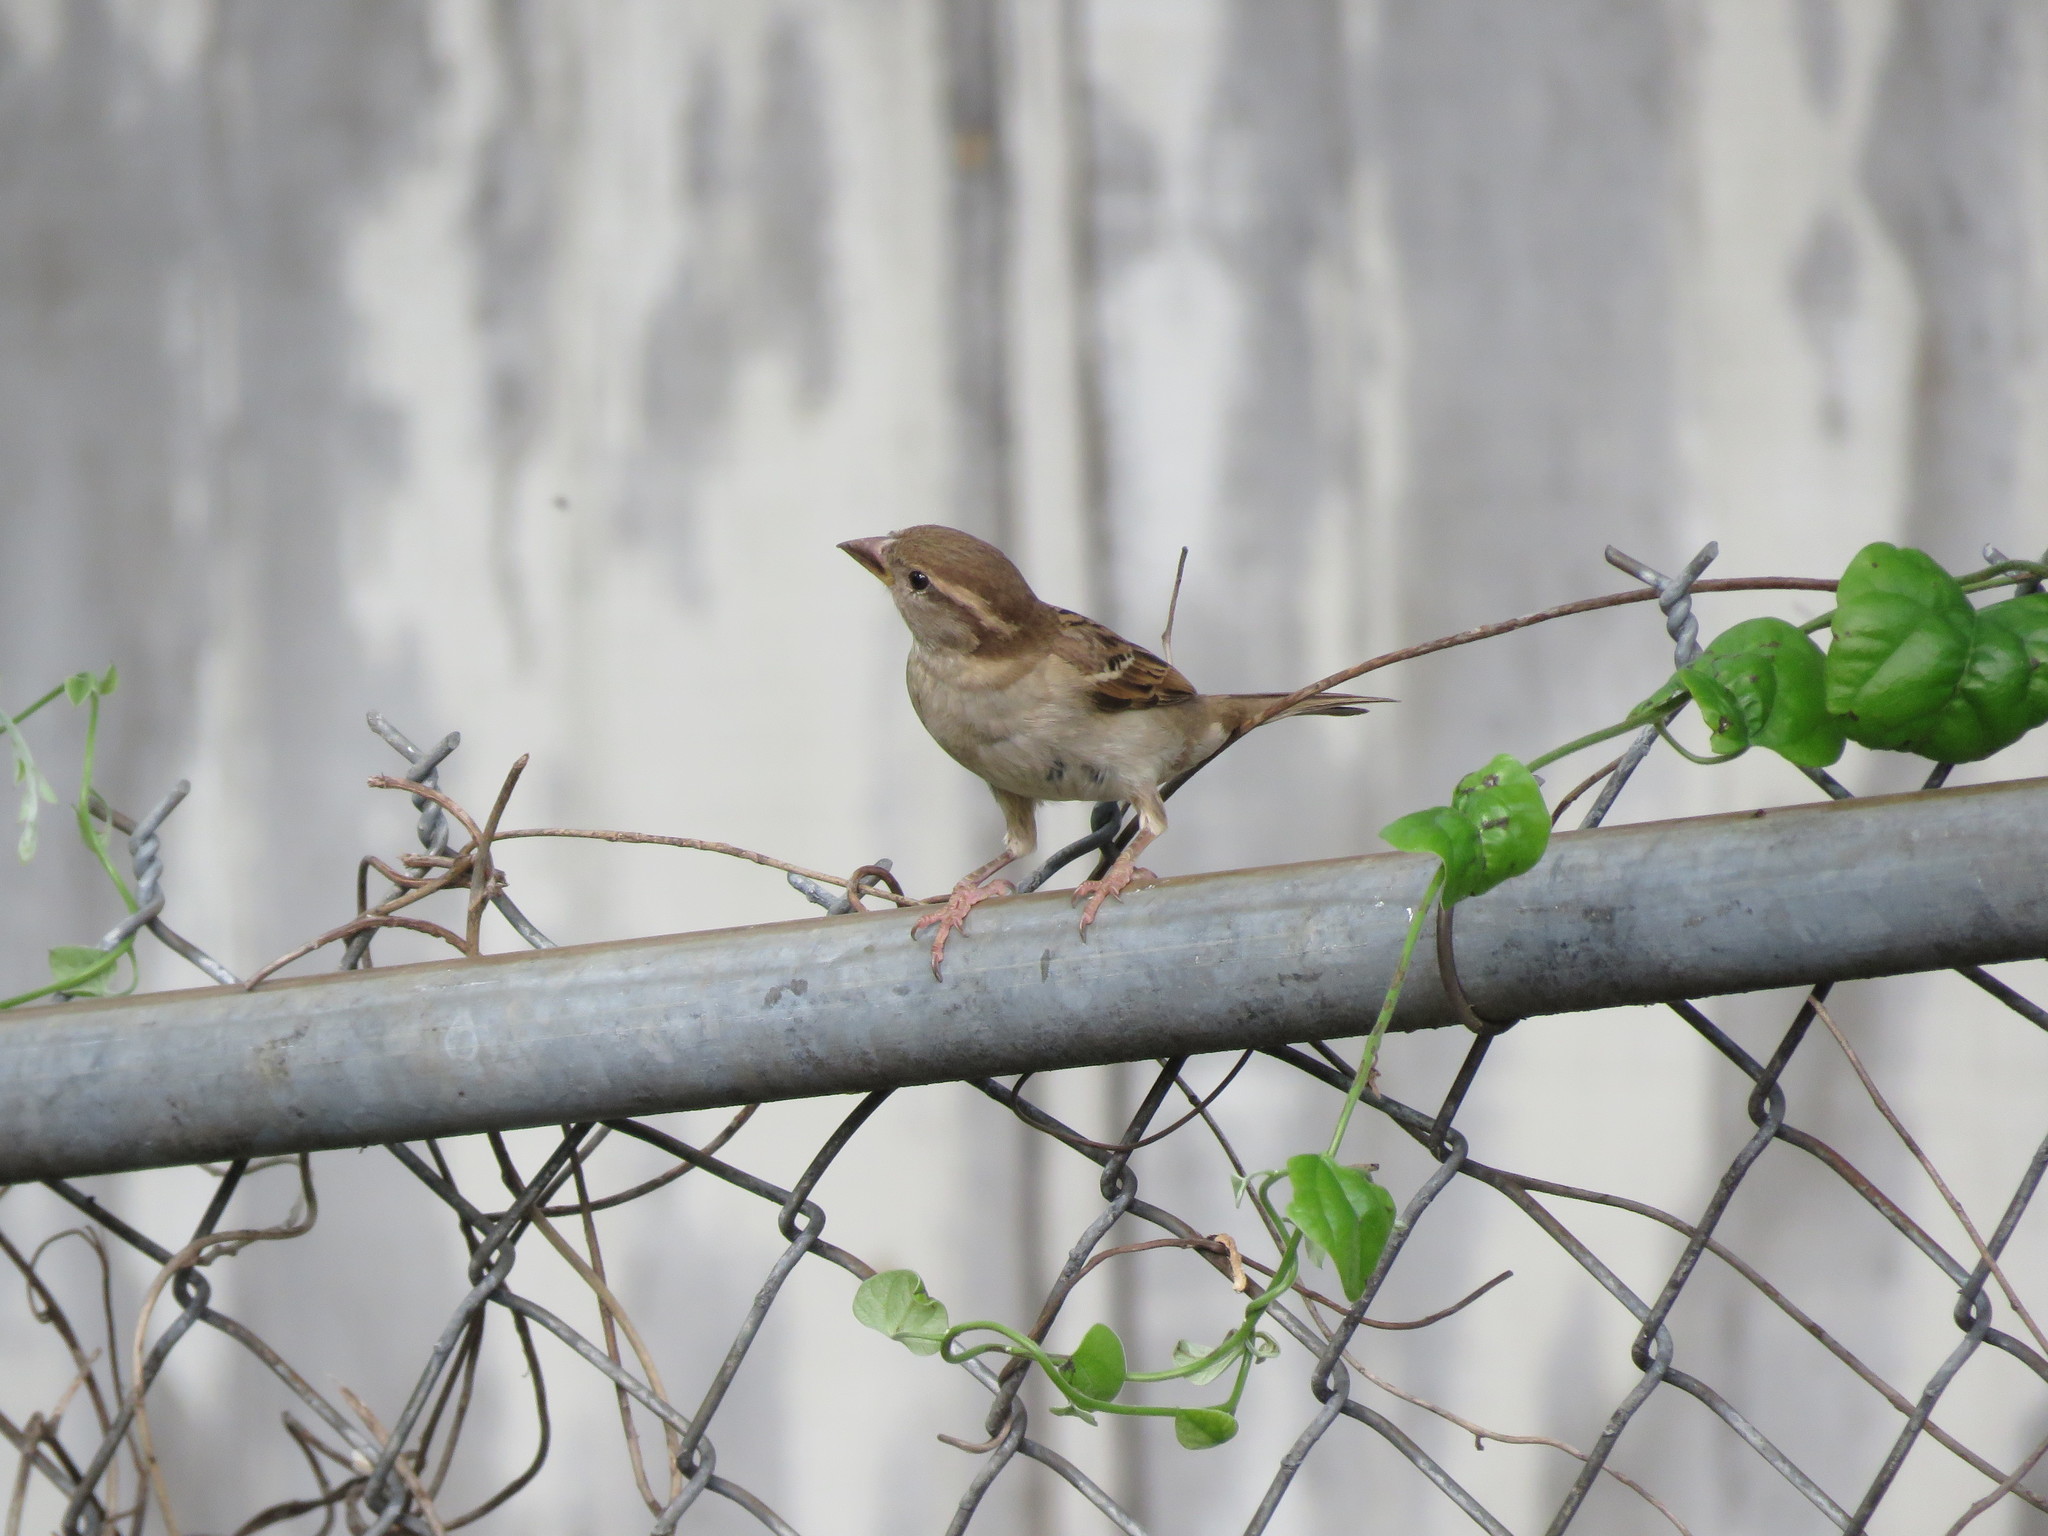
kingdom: Animalia
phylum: Chordata
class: Aves
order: Passeriformes
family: Passeridae
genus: Passer
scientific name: Passer domesticus
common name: House sparrow
